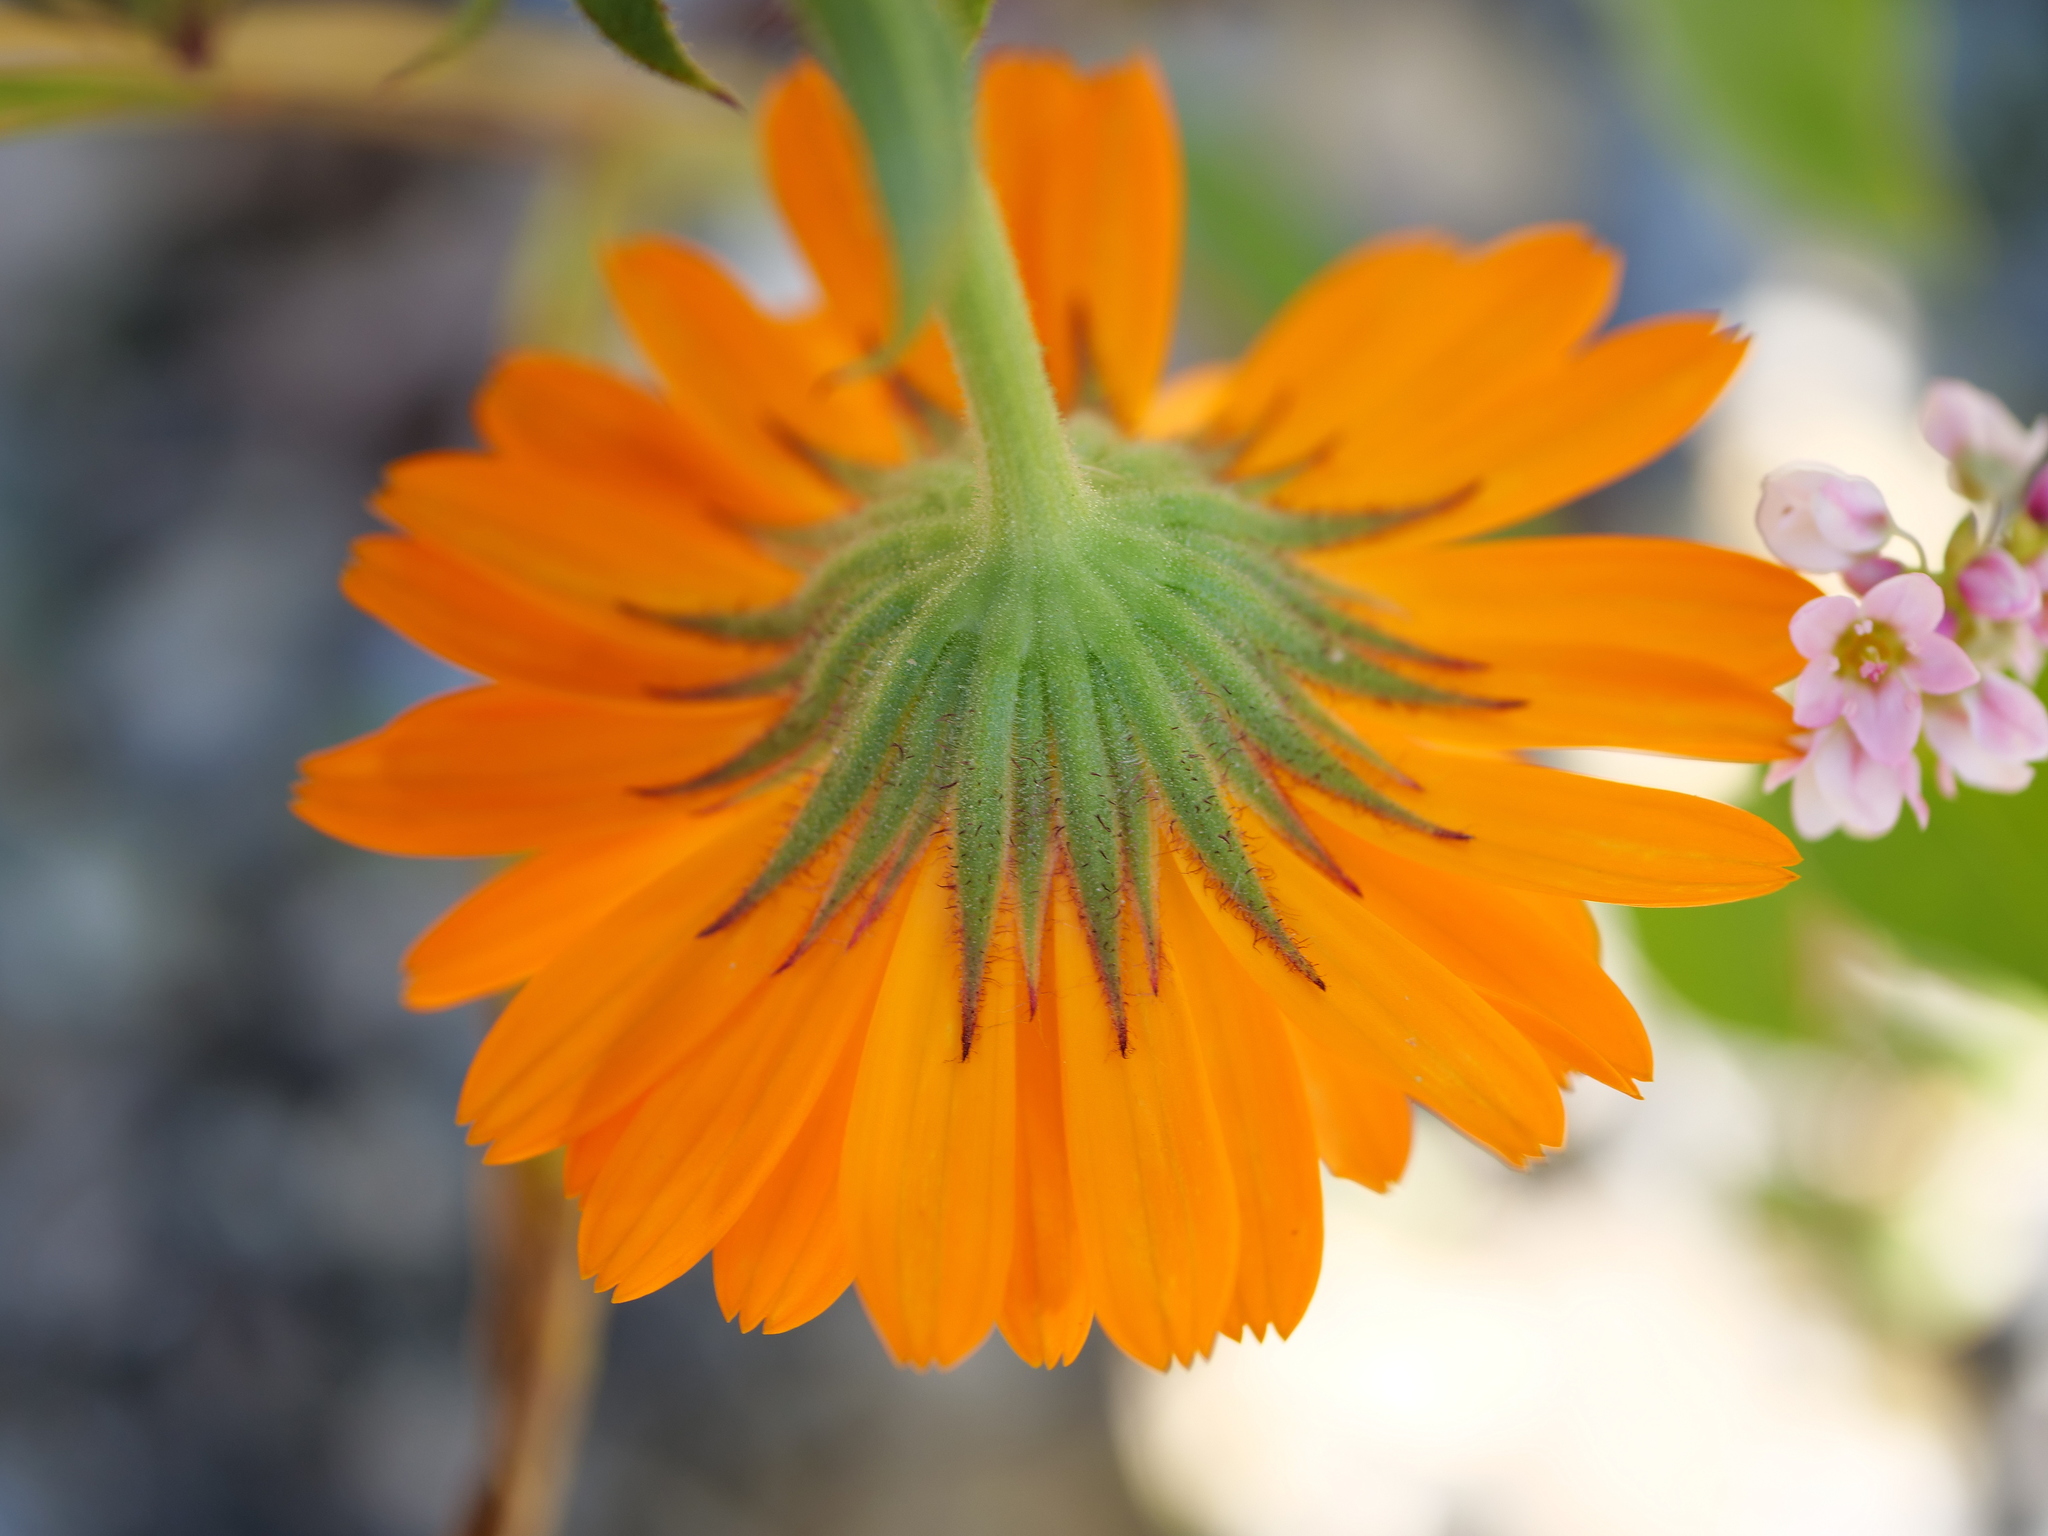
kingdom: Plantae
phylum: Tracheophyta
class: Magnoliopsida
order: Asterales
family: Asteraceae
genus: Calendula
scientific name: Calendula officinalis
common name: Pot marigold
